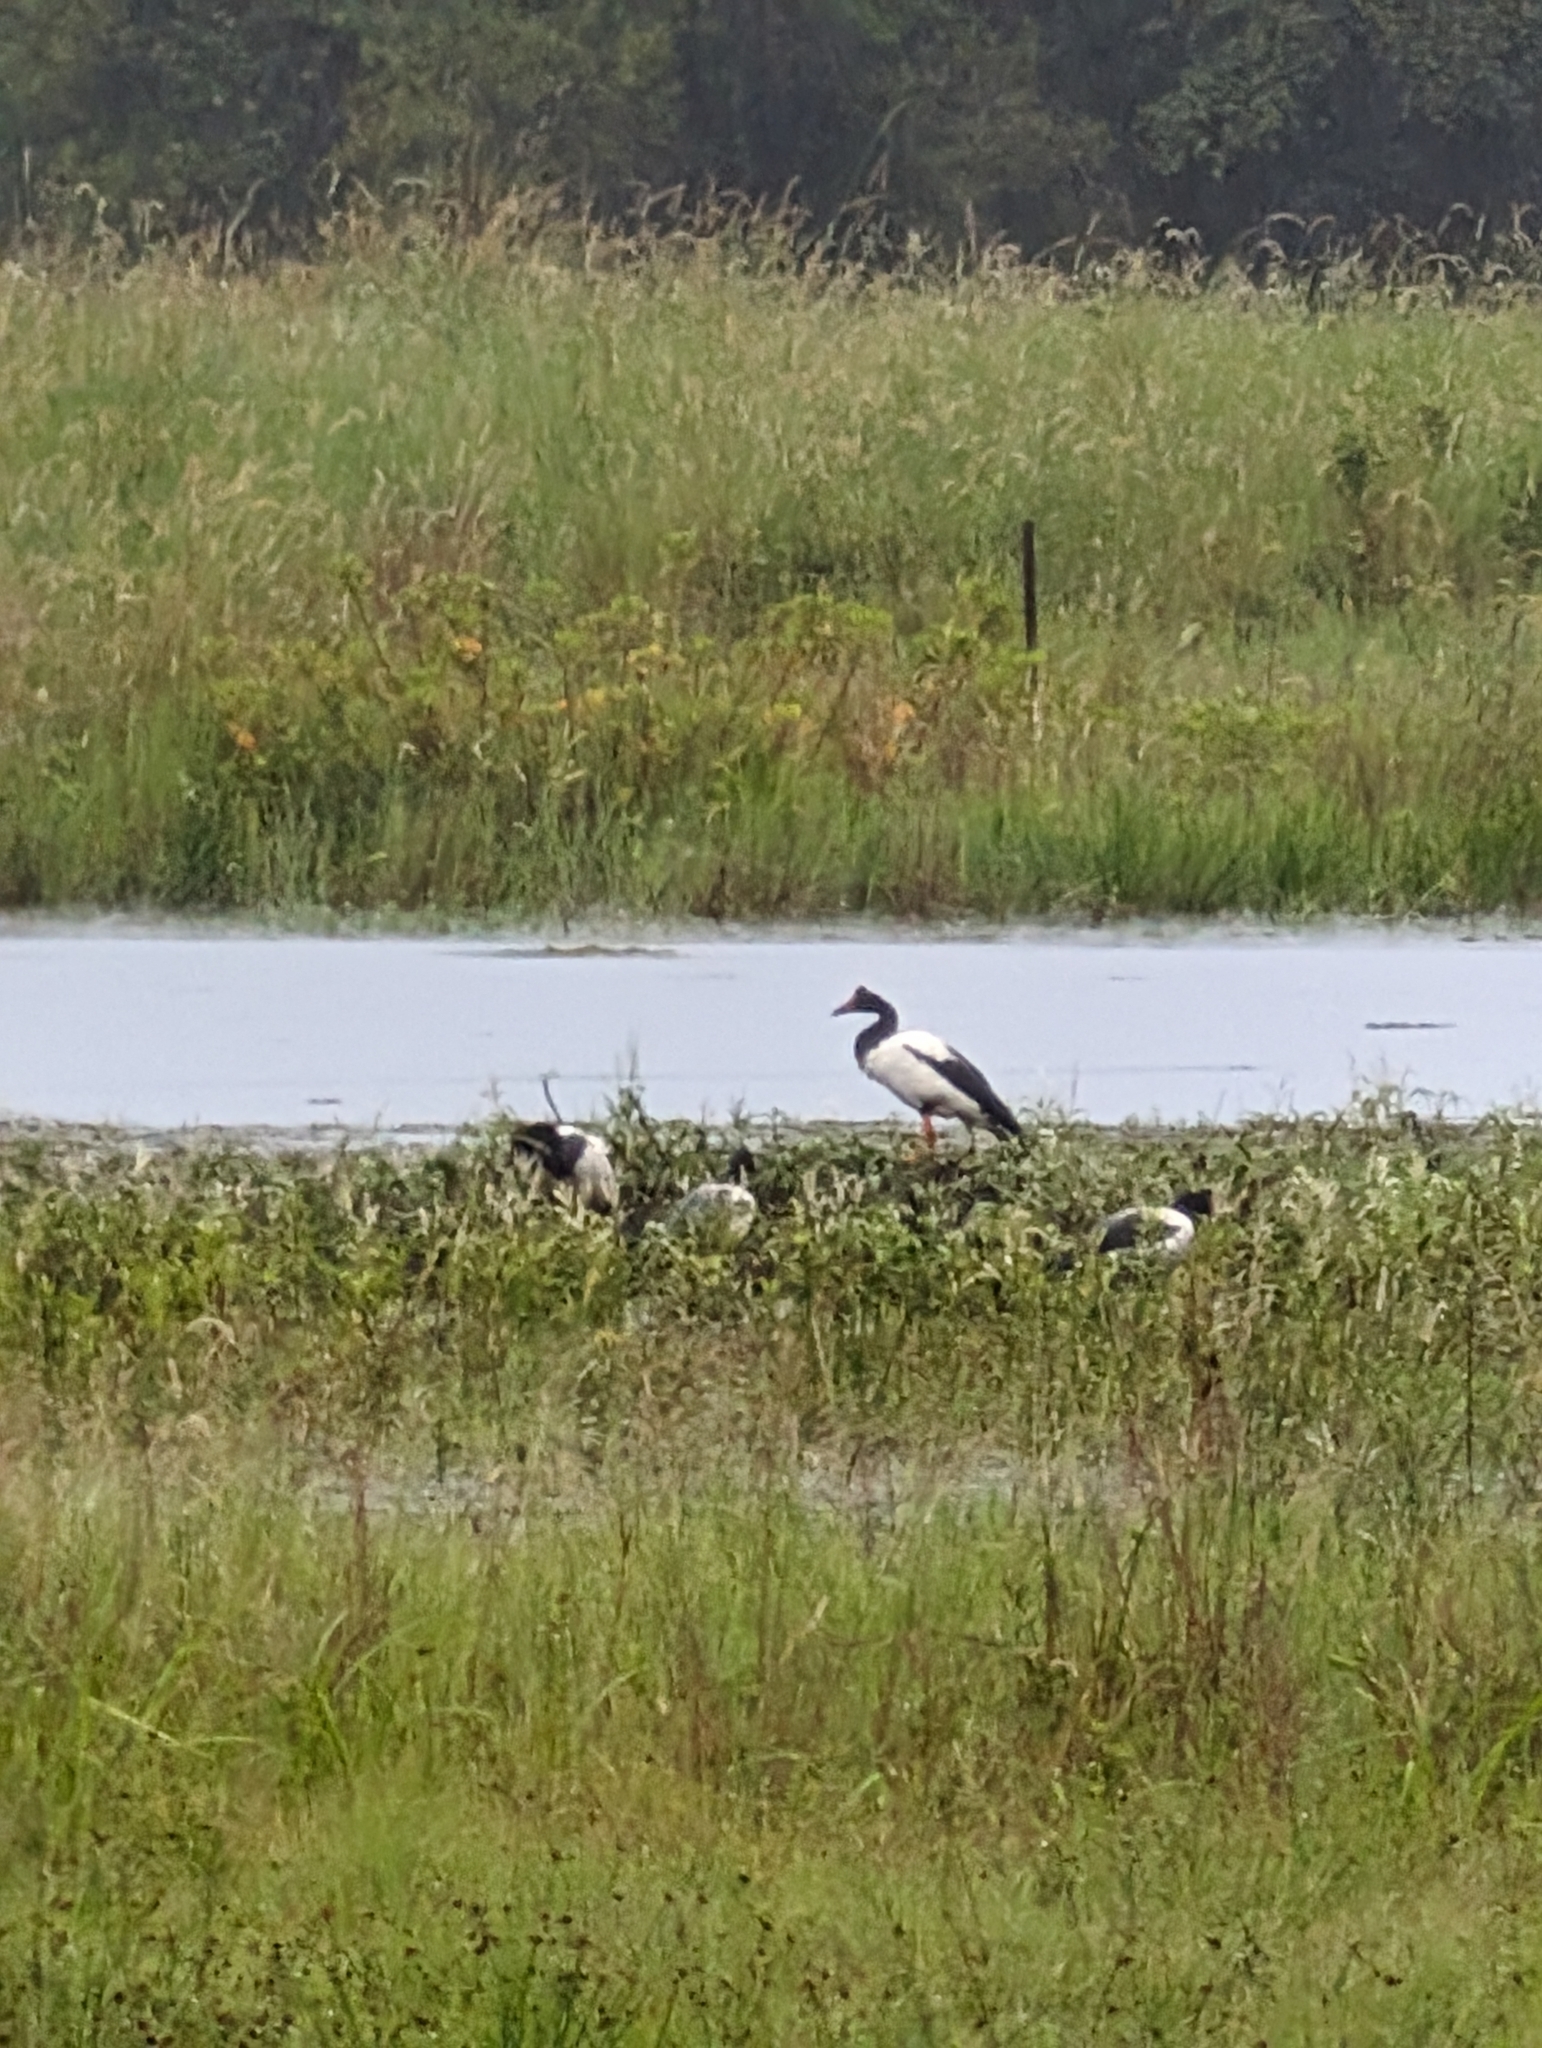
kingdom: Animalia
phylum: Chordata
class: Aves
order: Anseriformes
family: Anseranatidae
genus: Anseranas
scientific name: Anseranas semipalmata
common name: Magpie goose
